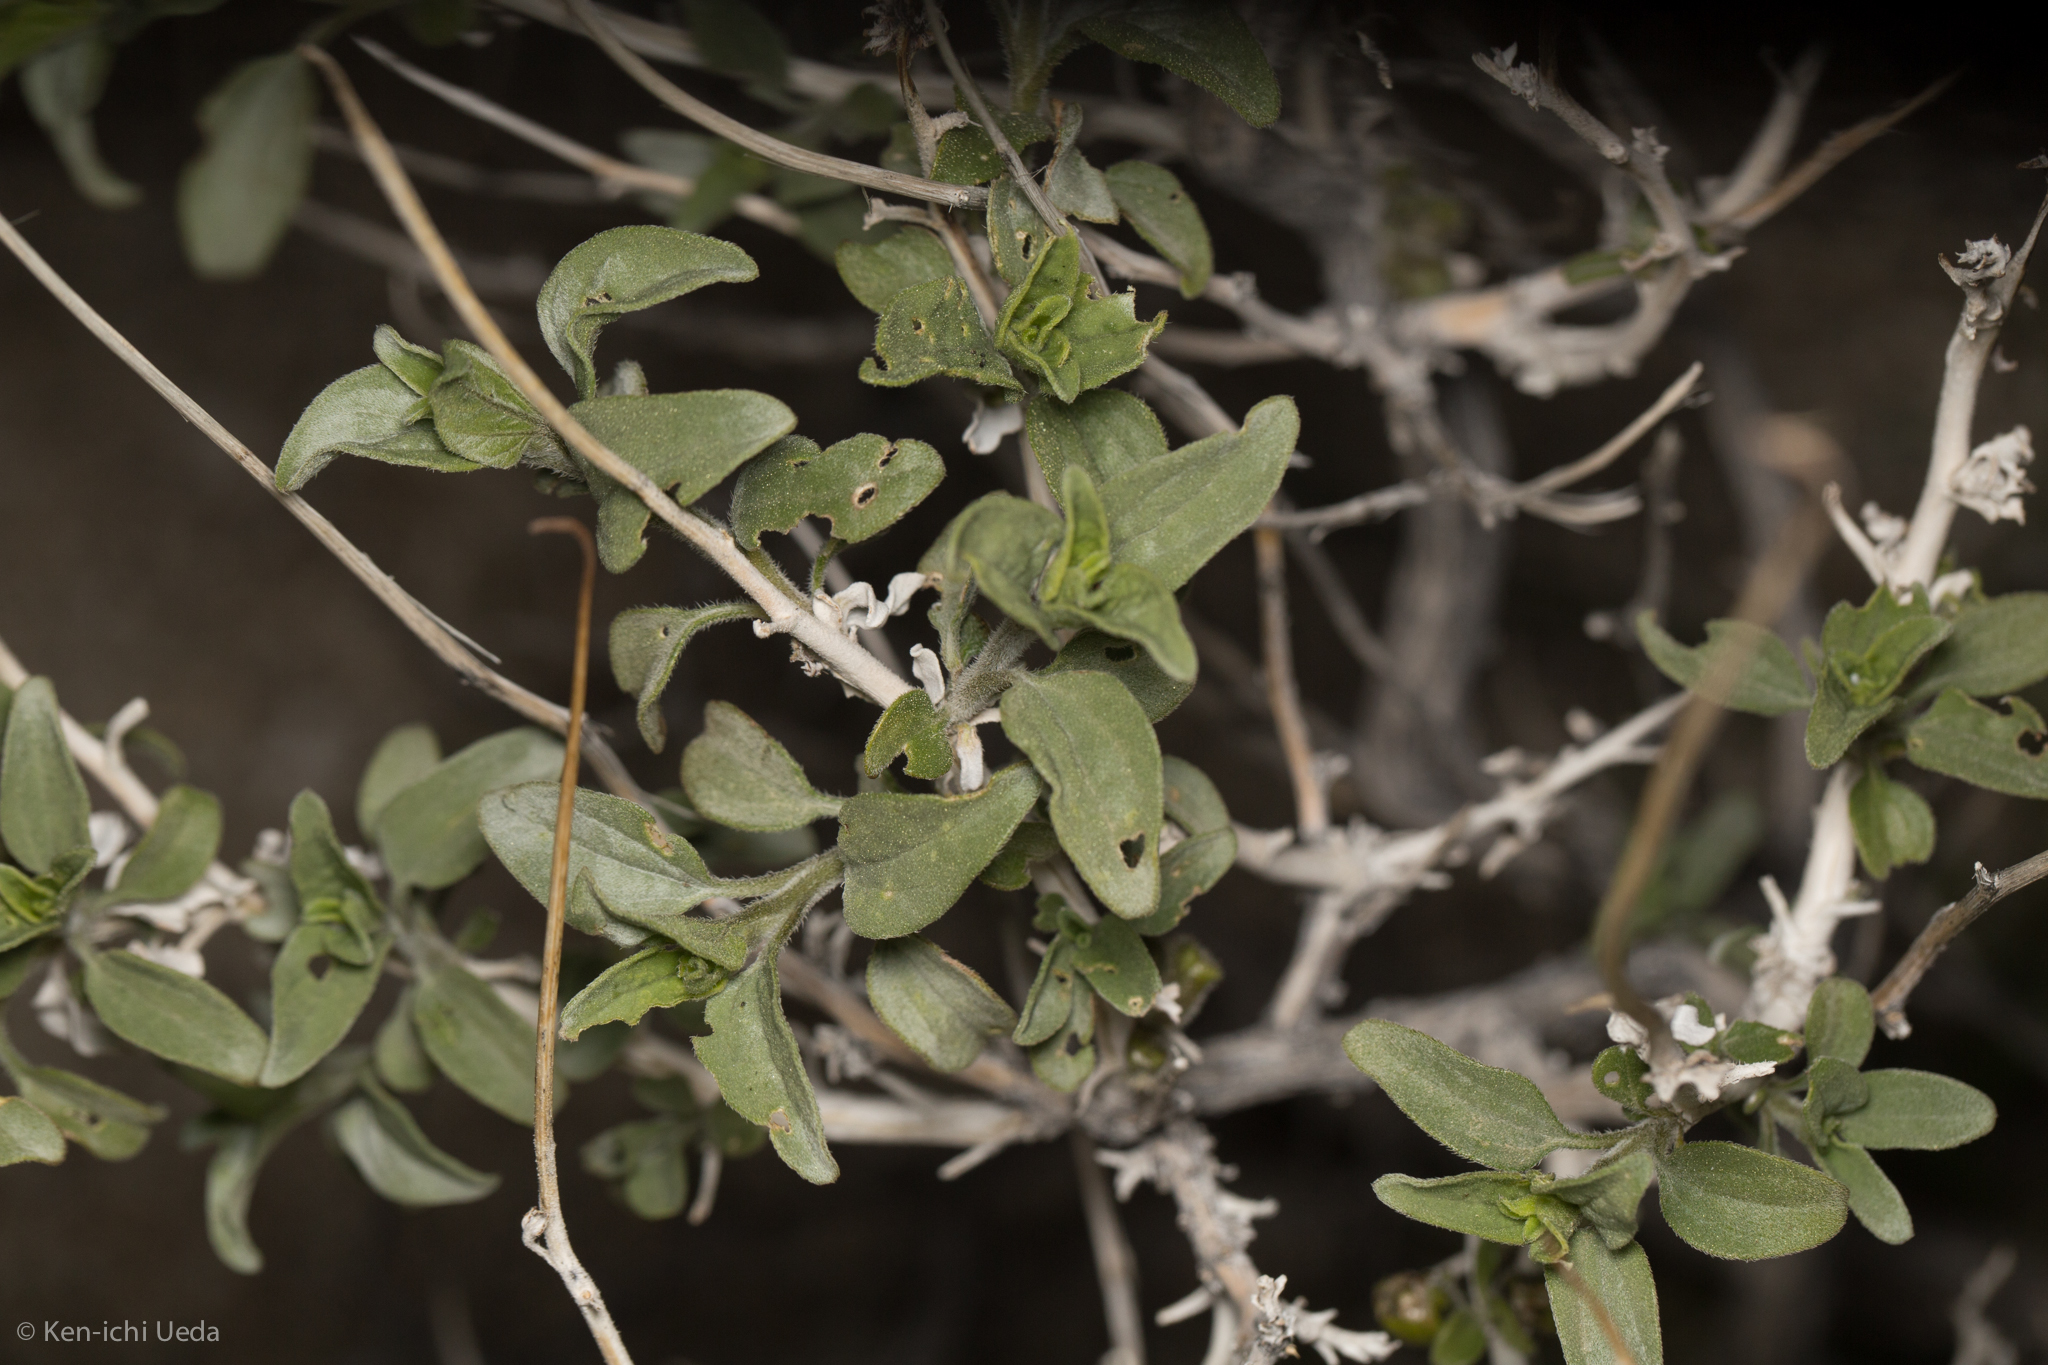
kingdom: Plantae
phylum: Tracheophyta
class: Magnoliopsida
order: Asterales
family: Asteraceae
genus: Bahiopsis
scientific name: Bahiopsis parishii
